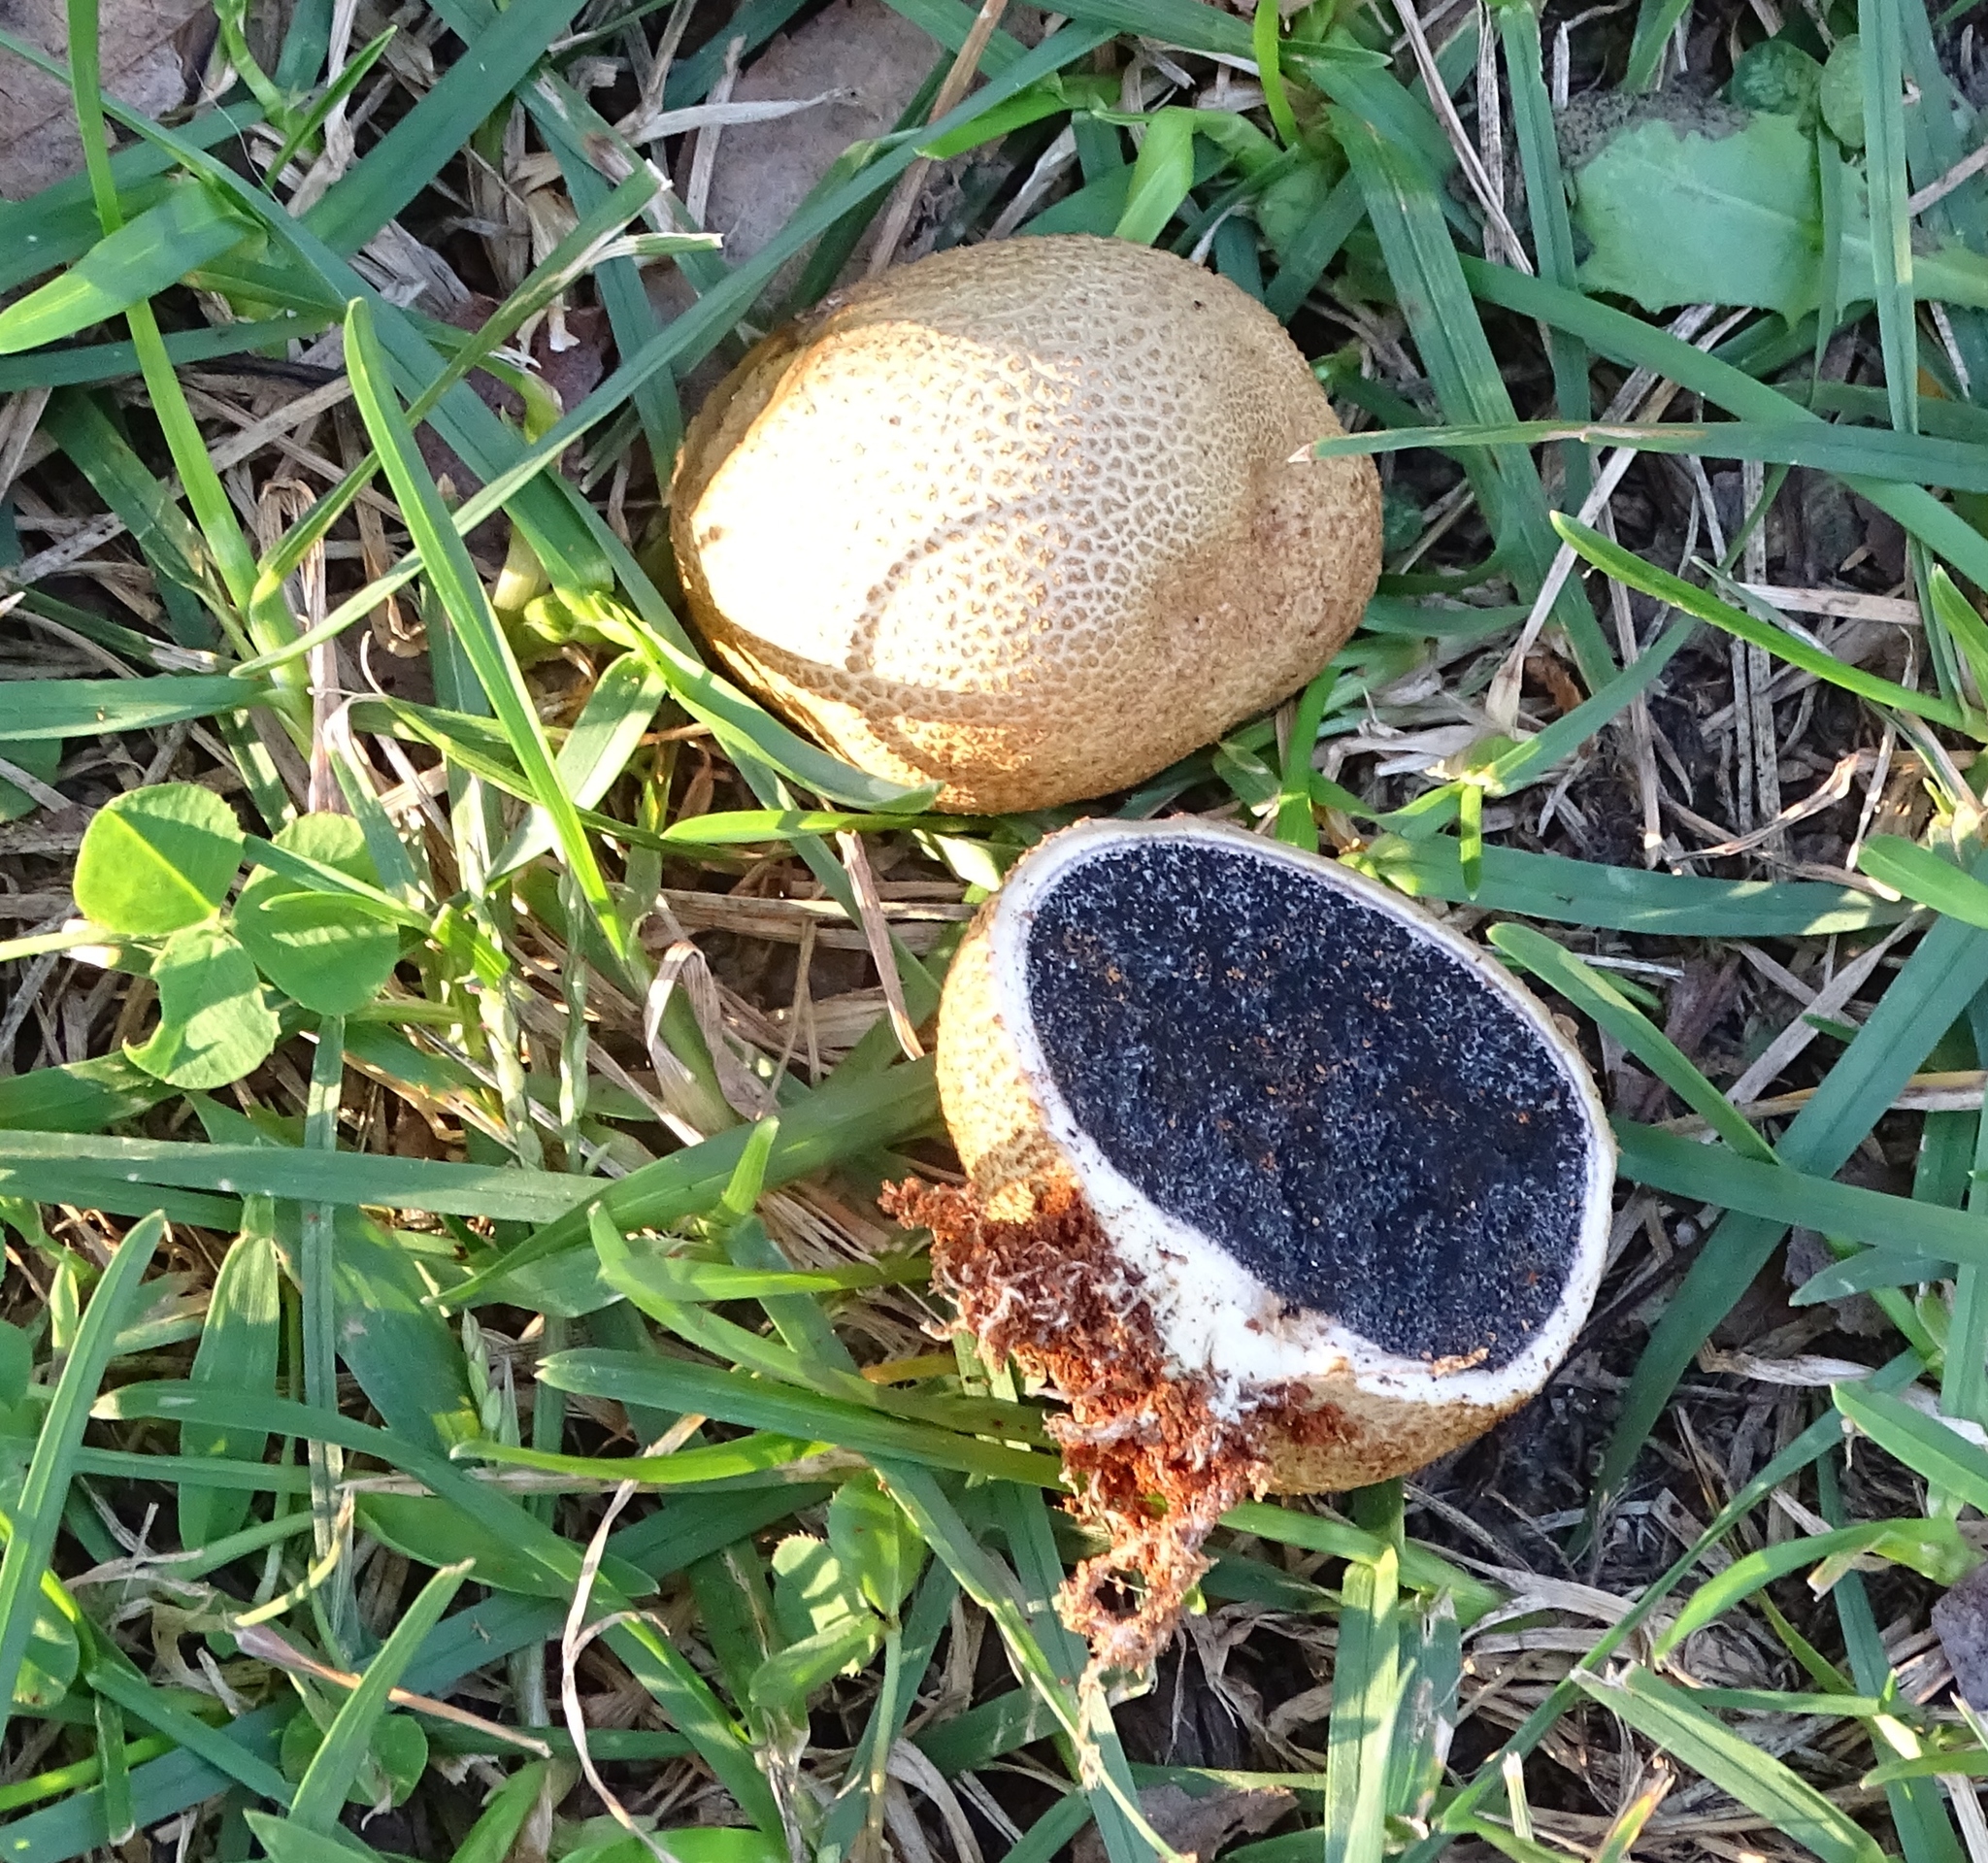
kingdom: Fungi
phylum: Basidiomycota
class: Agaricomycetes
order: Boletales
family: Sclerodermataceae
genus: Scleroderma
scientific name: Scleroderma citrinum
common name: Common earthball
